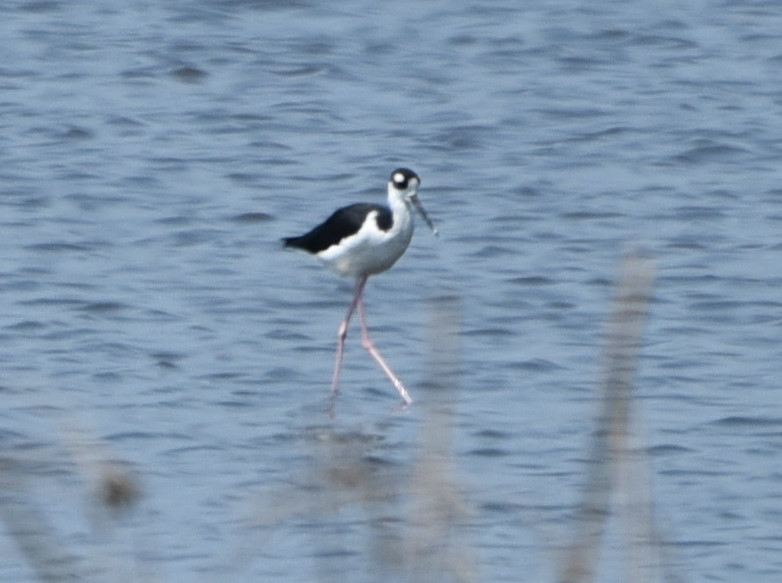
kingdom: Animalia
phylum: Chordata
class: Aves
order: Charadriiformes
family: Recurvirostridae
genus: Himantopus
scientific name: Himantopus mexicanus
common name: Black-necked stilt
